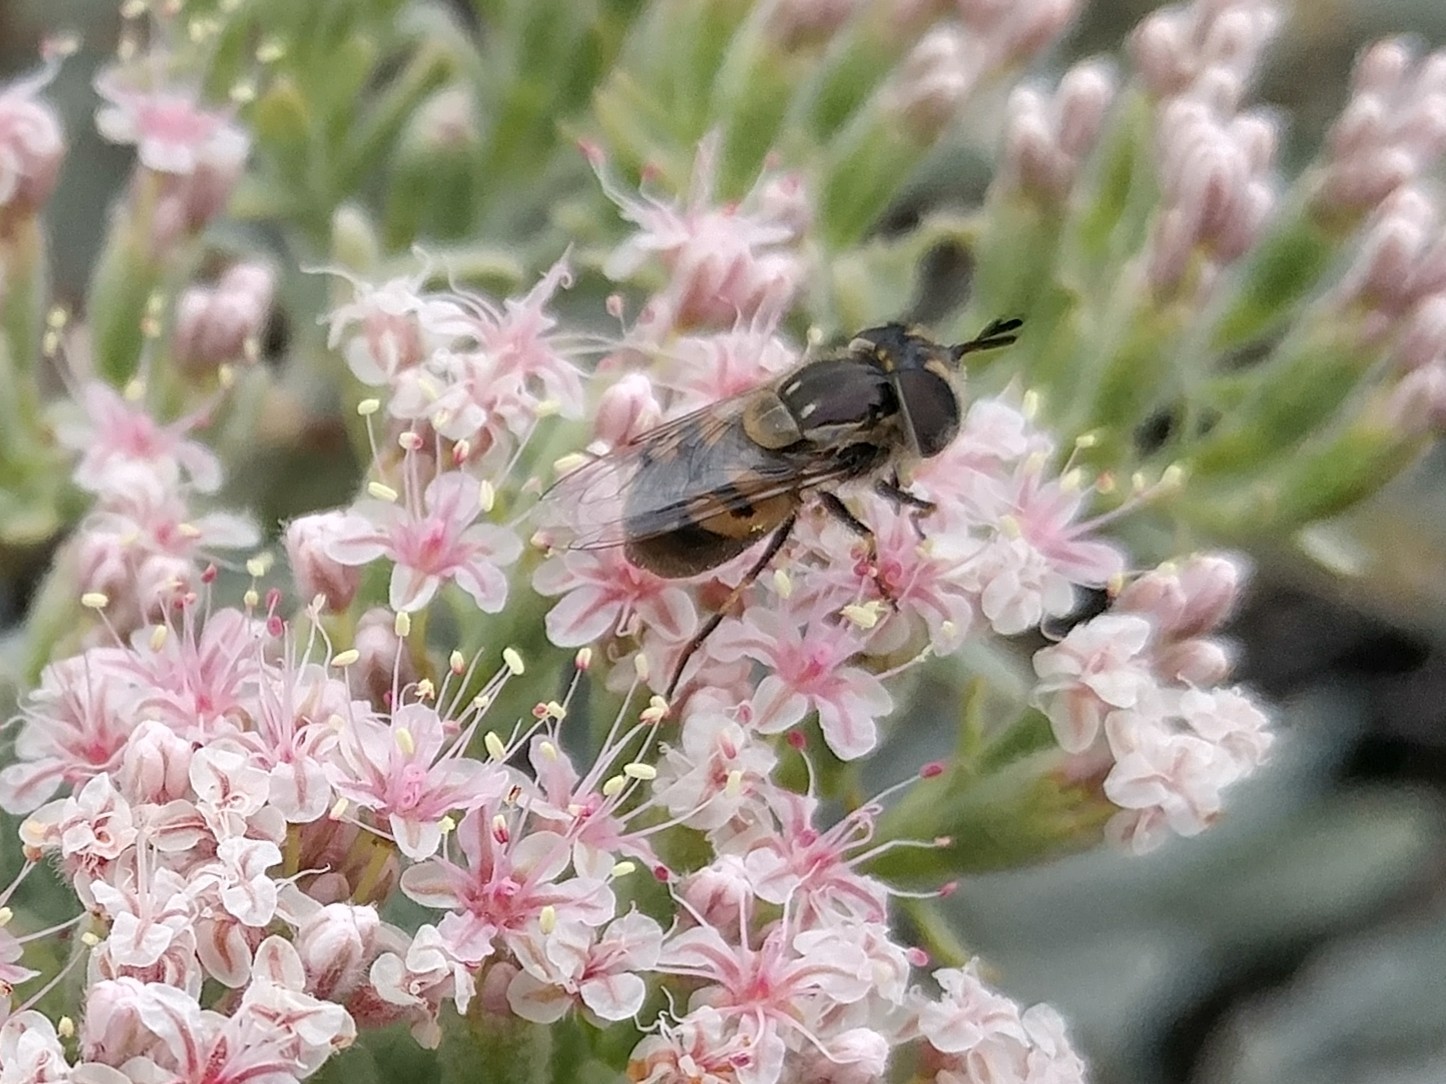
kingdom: Animalia
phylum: Arthropoda
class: Insecta
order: Diptera
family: Syrphidae
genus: Copestylum
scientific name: Copestylum lentum
